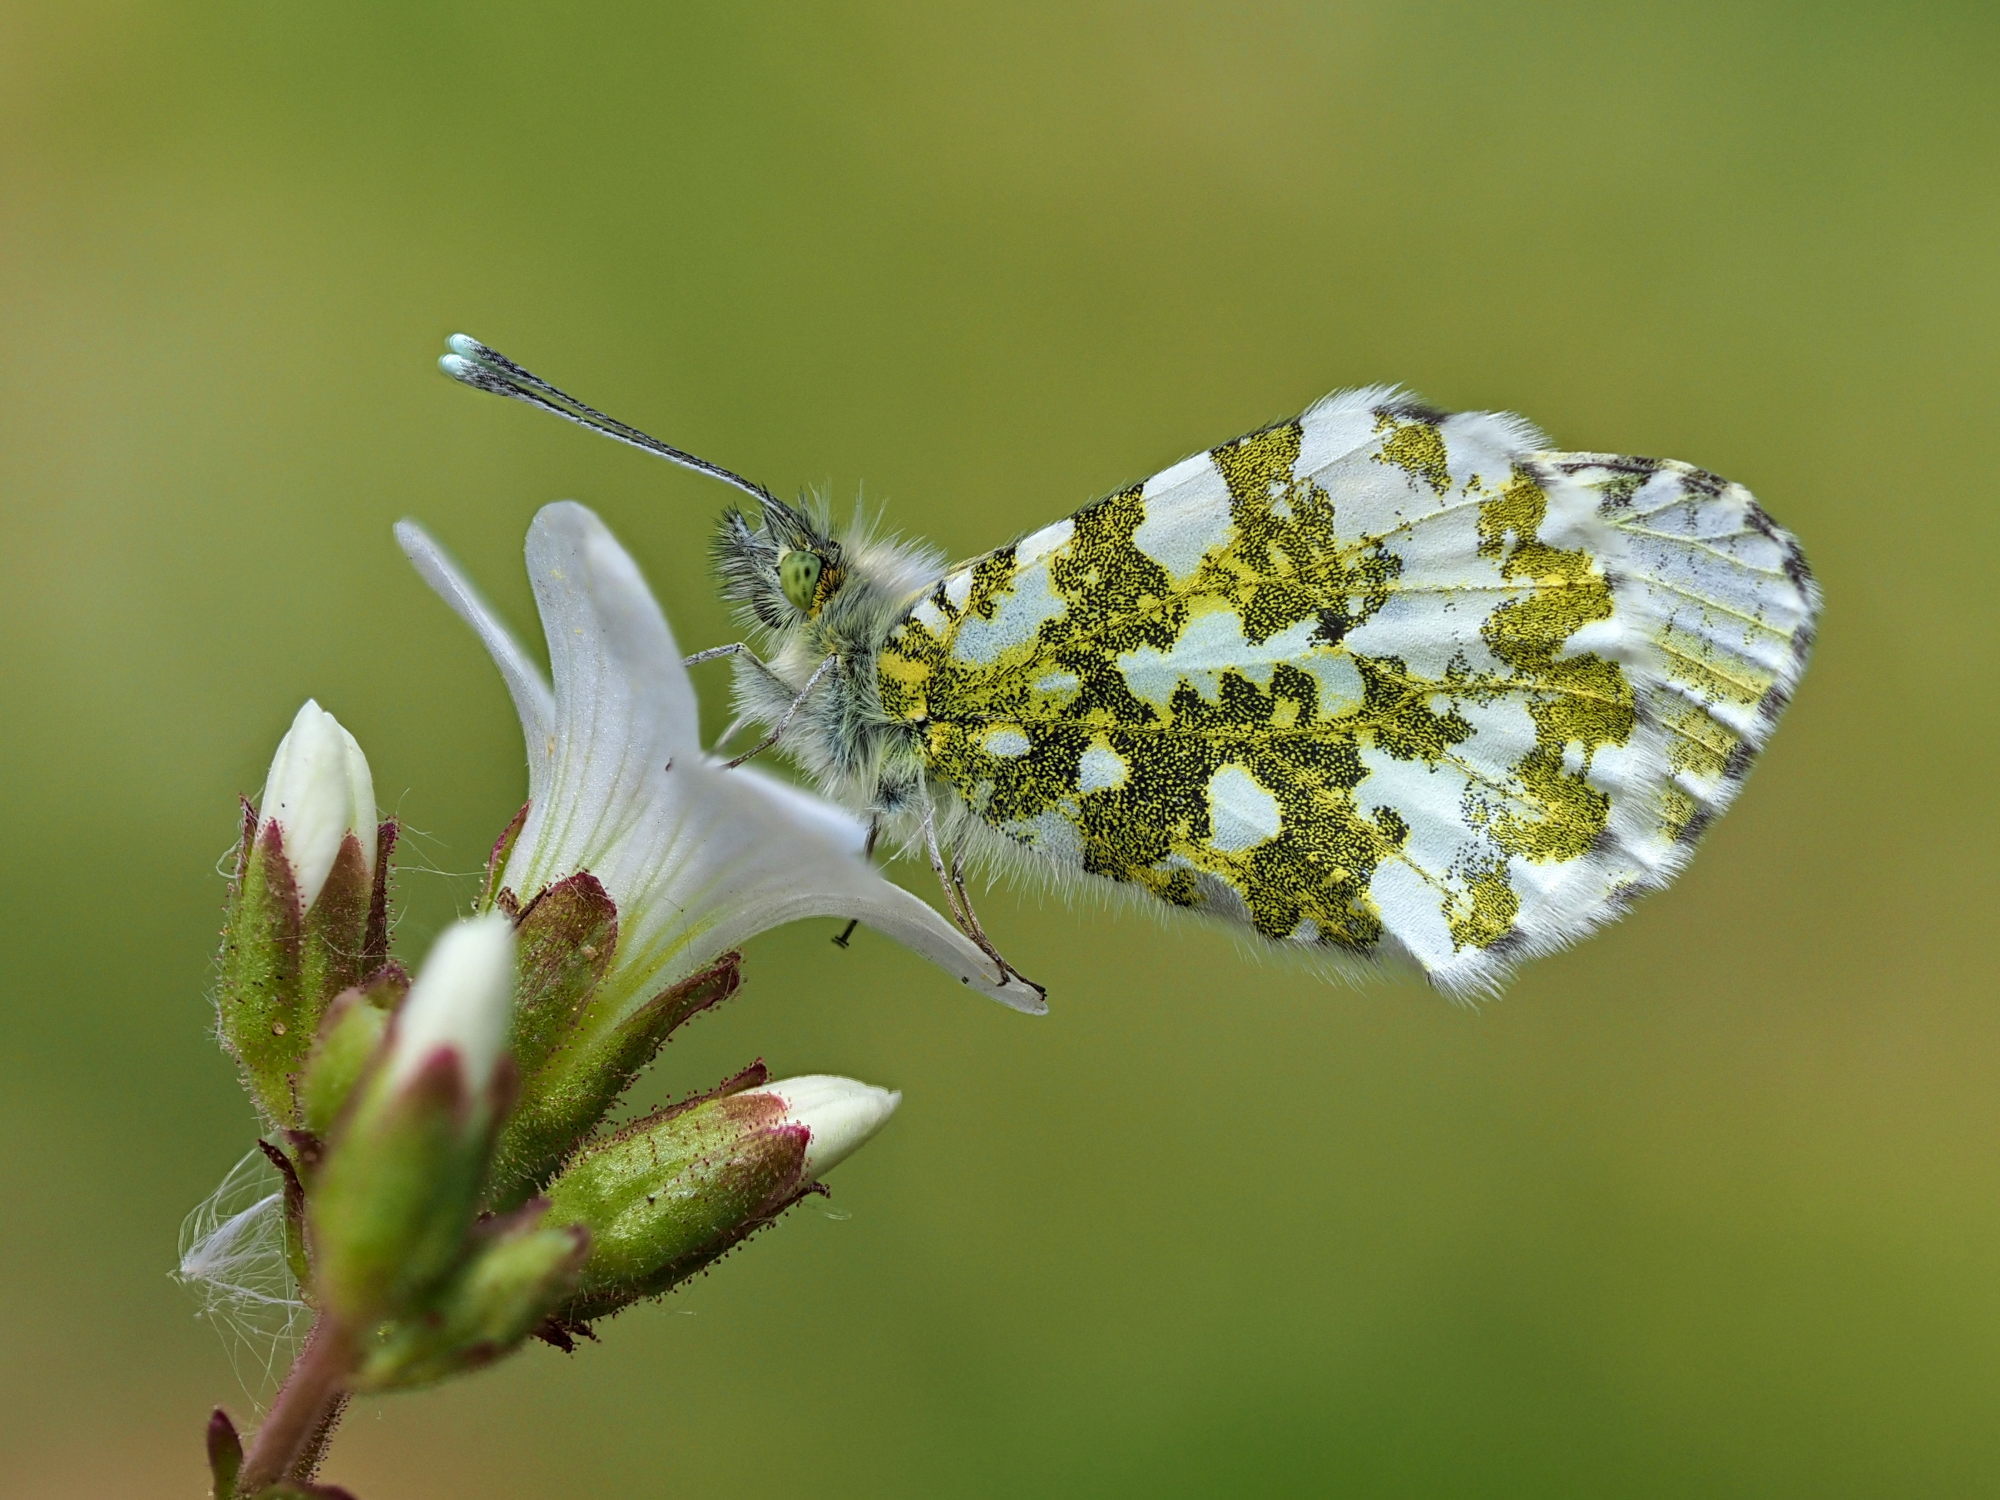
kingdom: Animalia
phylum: Arthropoda
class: Insecta
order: Lepidoptera
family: Pieridae
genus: Anthocharis
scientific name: Anthocharis cardamines
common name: Orange-tip
